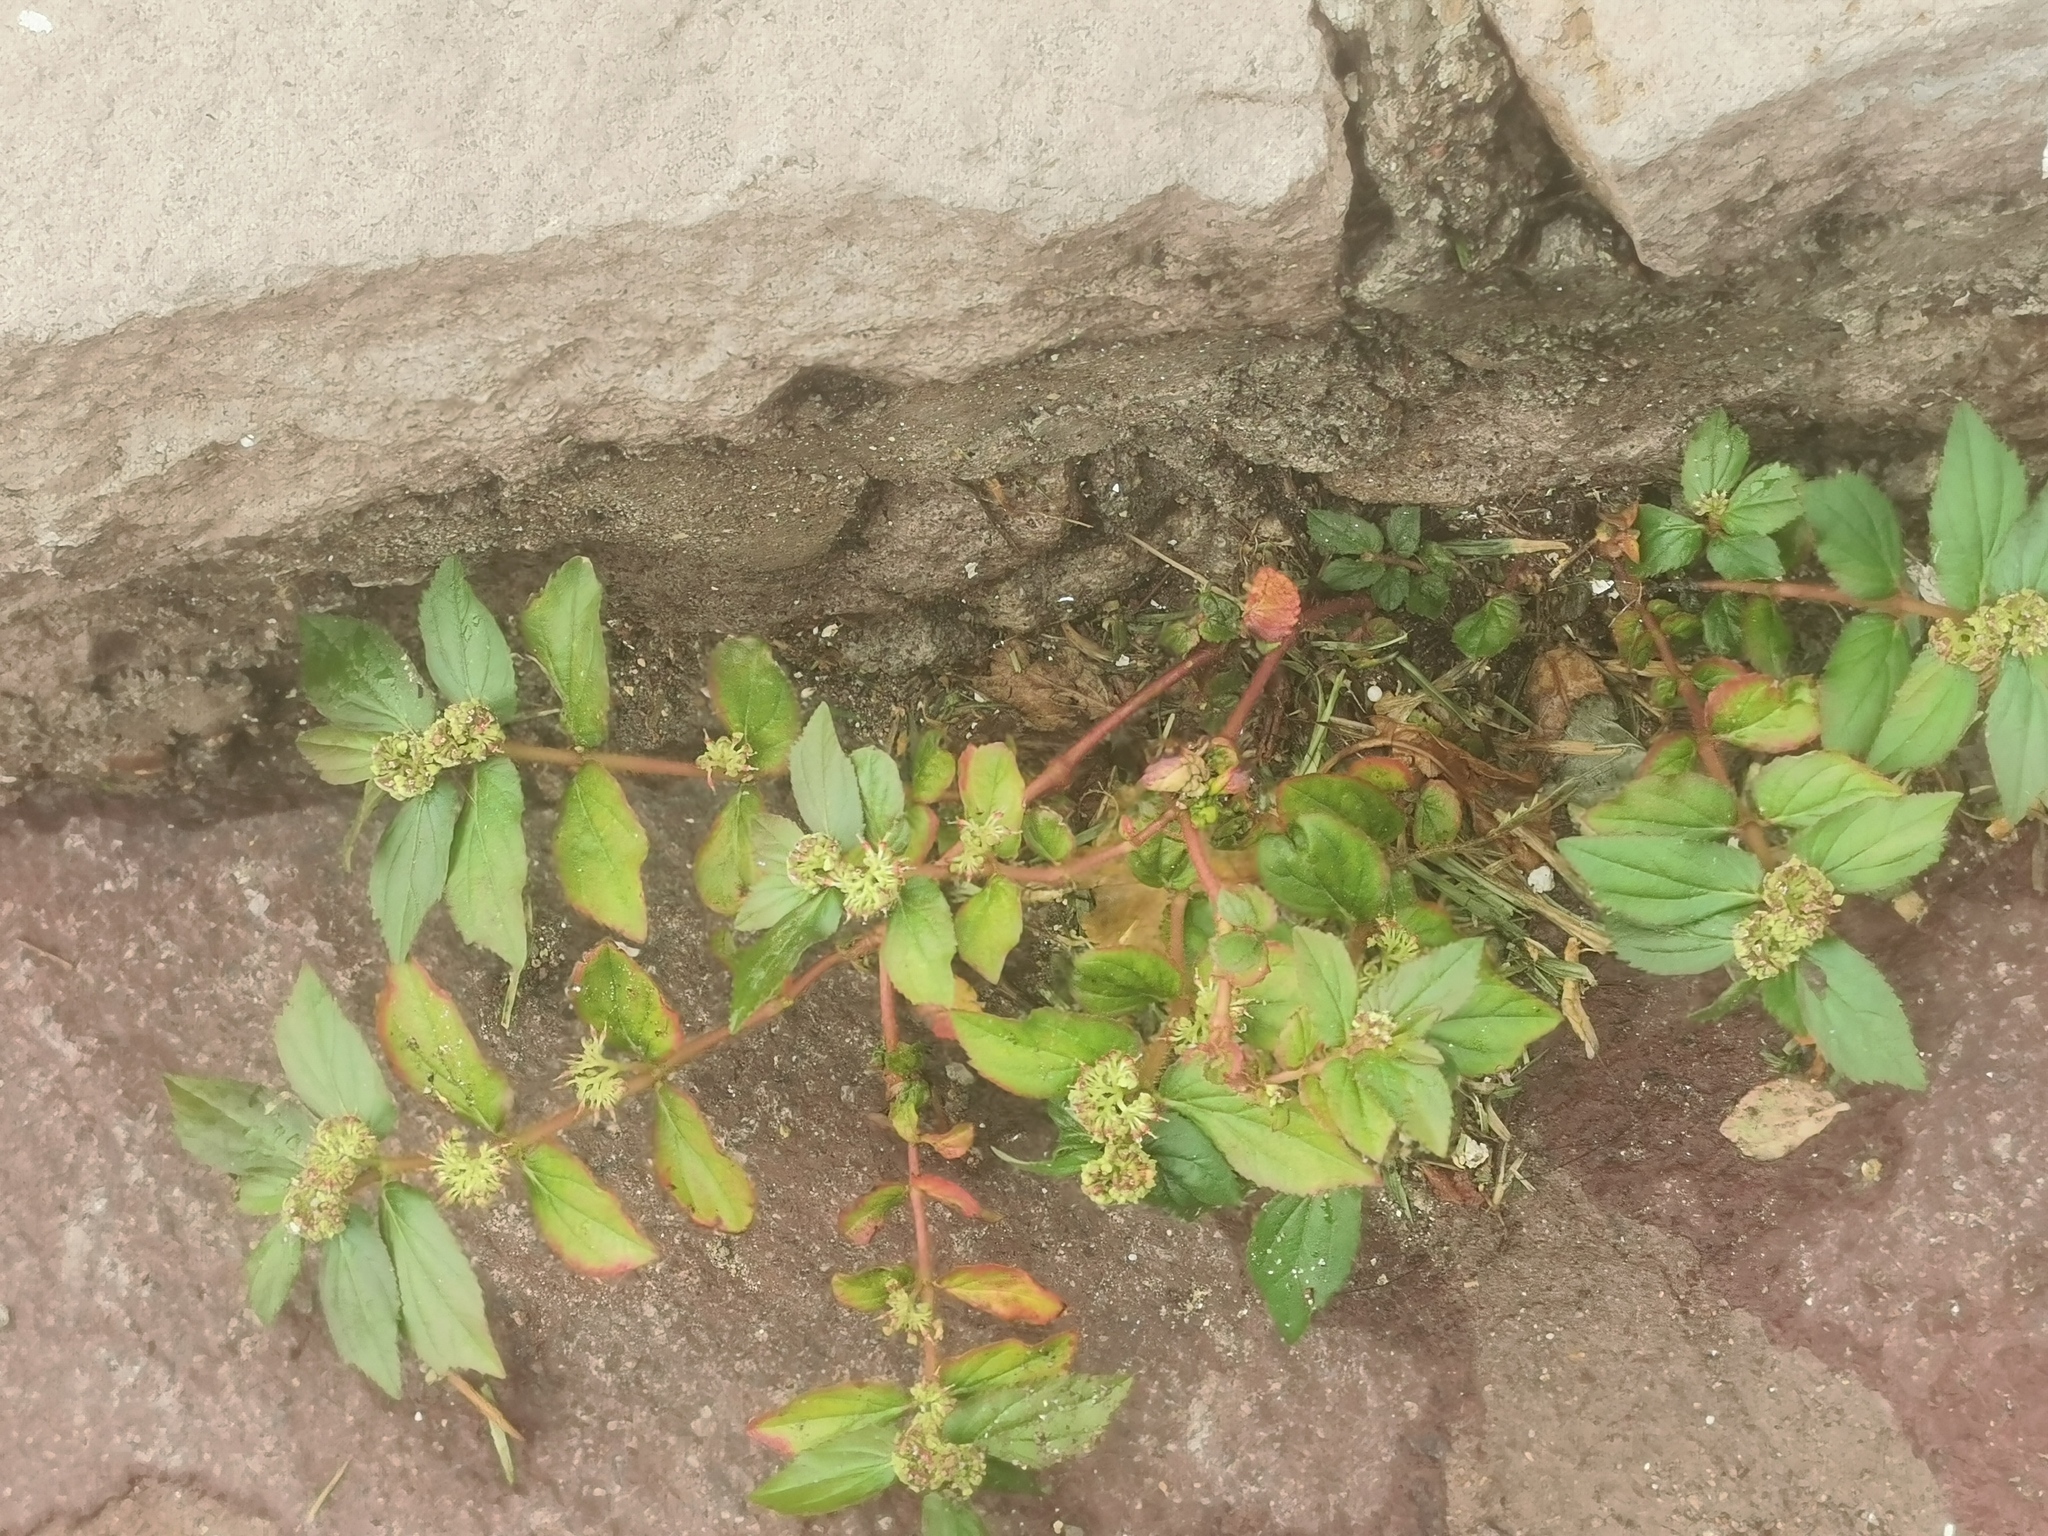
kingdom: Plantae
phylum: Tracheophyta
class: Magnoliopsida
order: Malpighiales
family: Euphorbiaceae
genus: Euphorbia
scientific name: Euphorbia hirta
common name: Pillpod sandmat
